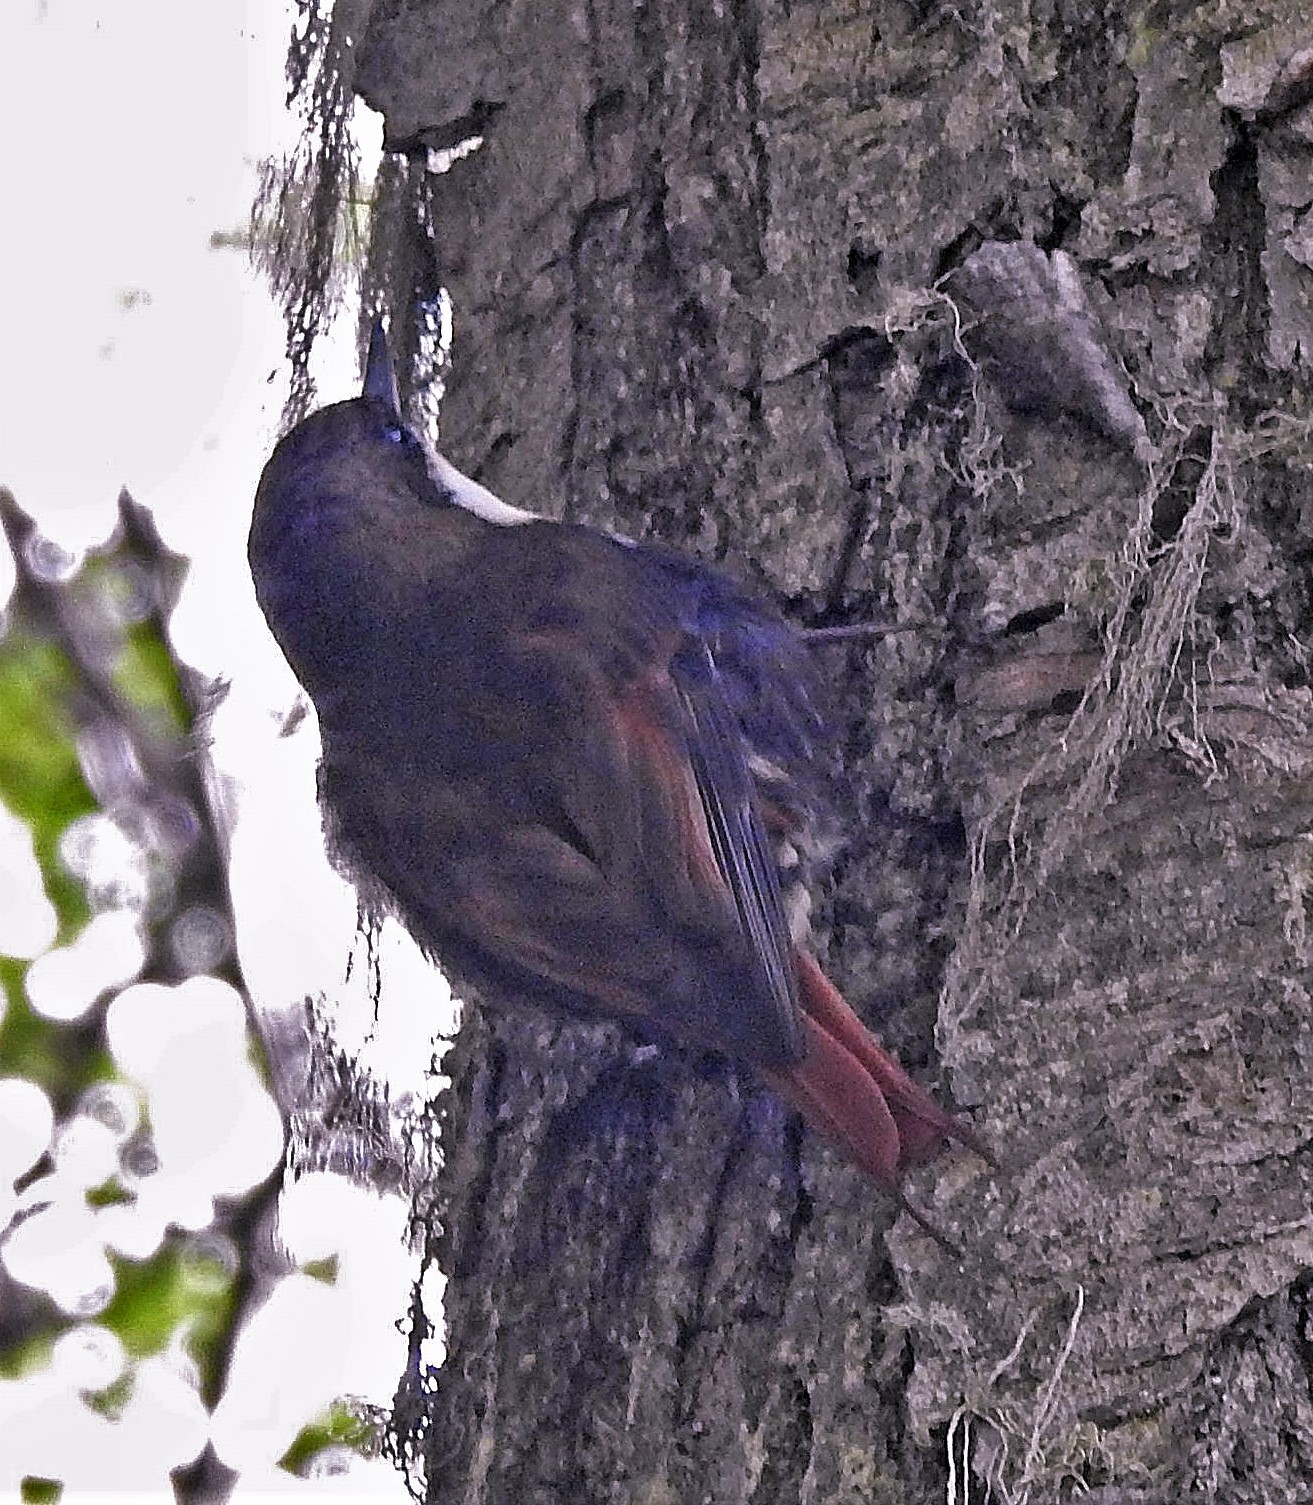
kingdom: Animalia
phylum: Chordata
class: Aves
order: Passeriformes
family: Furnariidae
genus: Pygarrhichas
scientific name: Pygarrhichas albogularis
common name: White-throated treerunner
